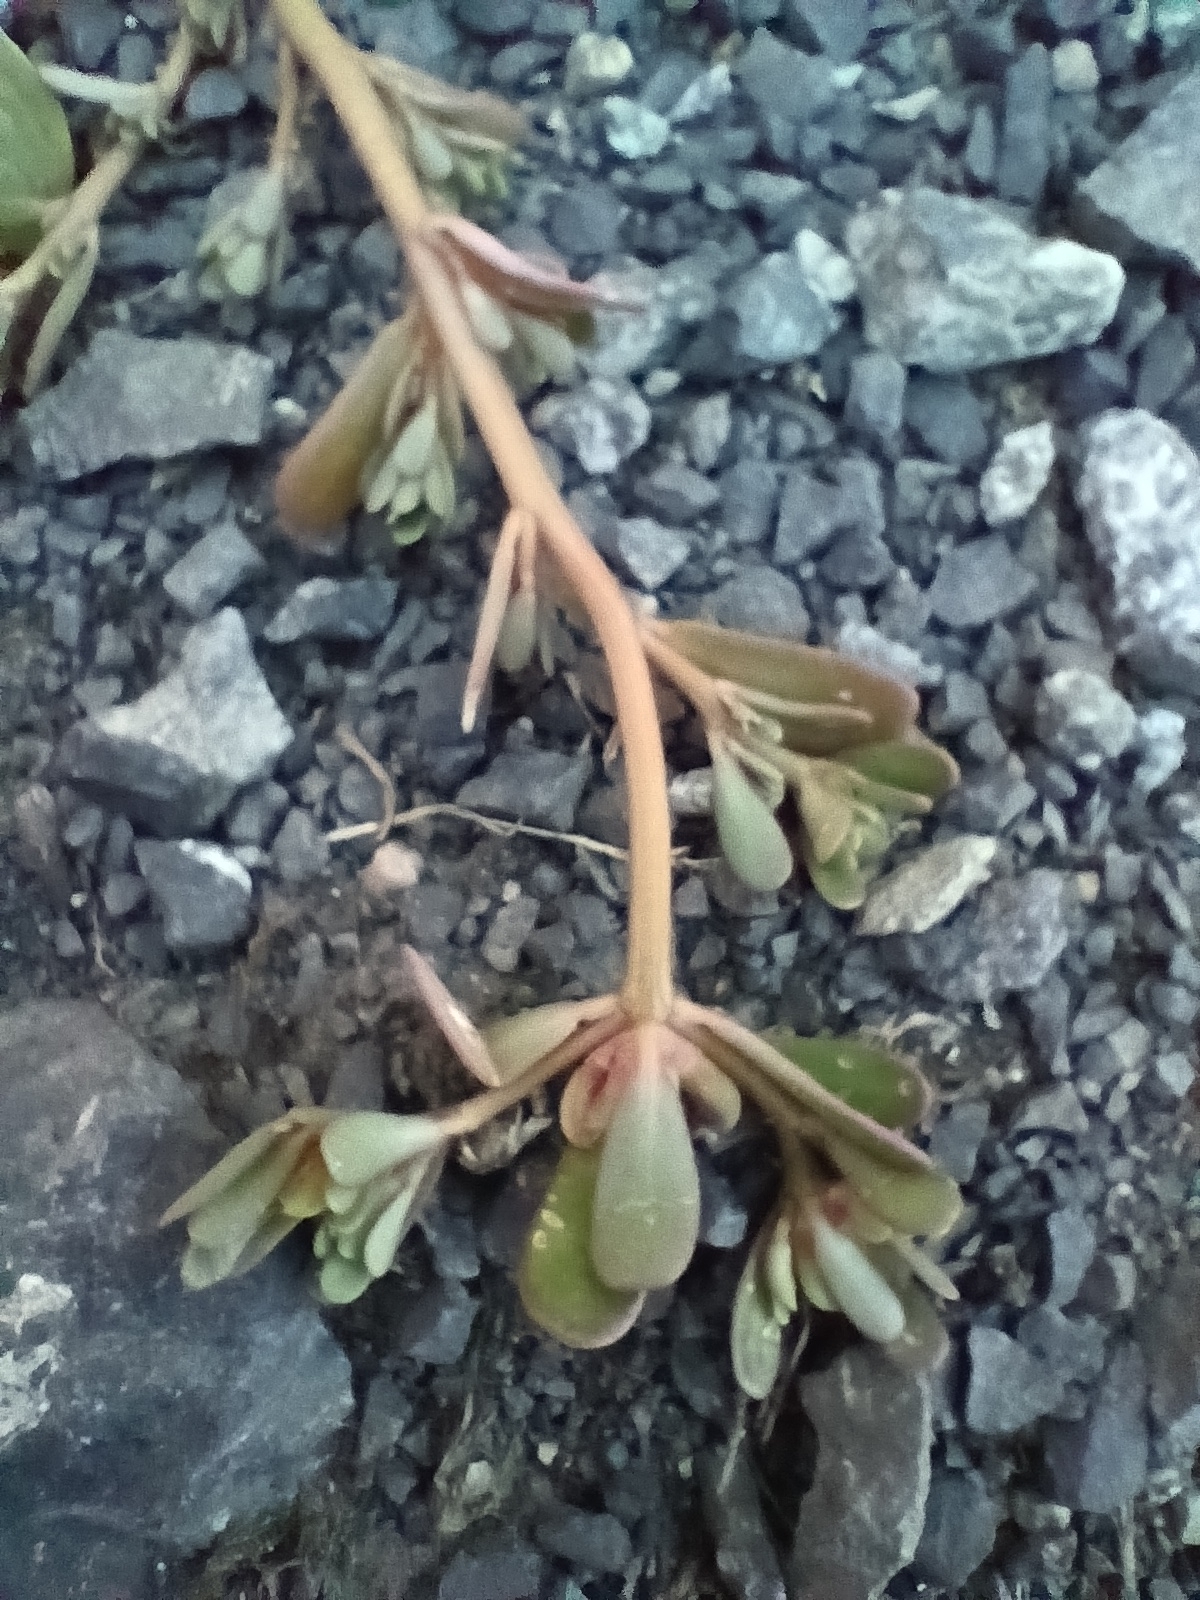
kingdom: Plantae
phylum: Tracheophyta
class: Magnoliopsida
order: Caryophyllales
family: Portulacaceae
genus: Portulaca
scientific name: Portulaca oleracea
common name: Common purslane
